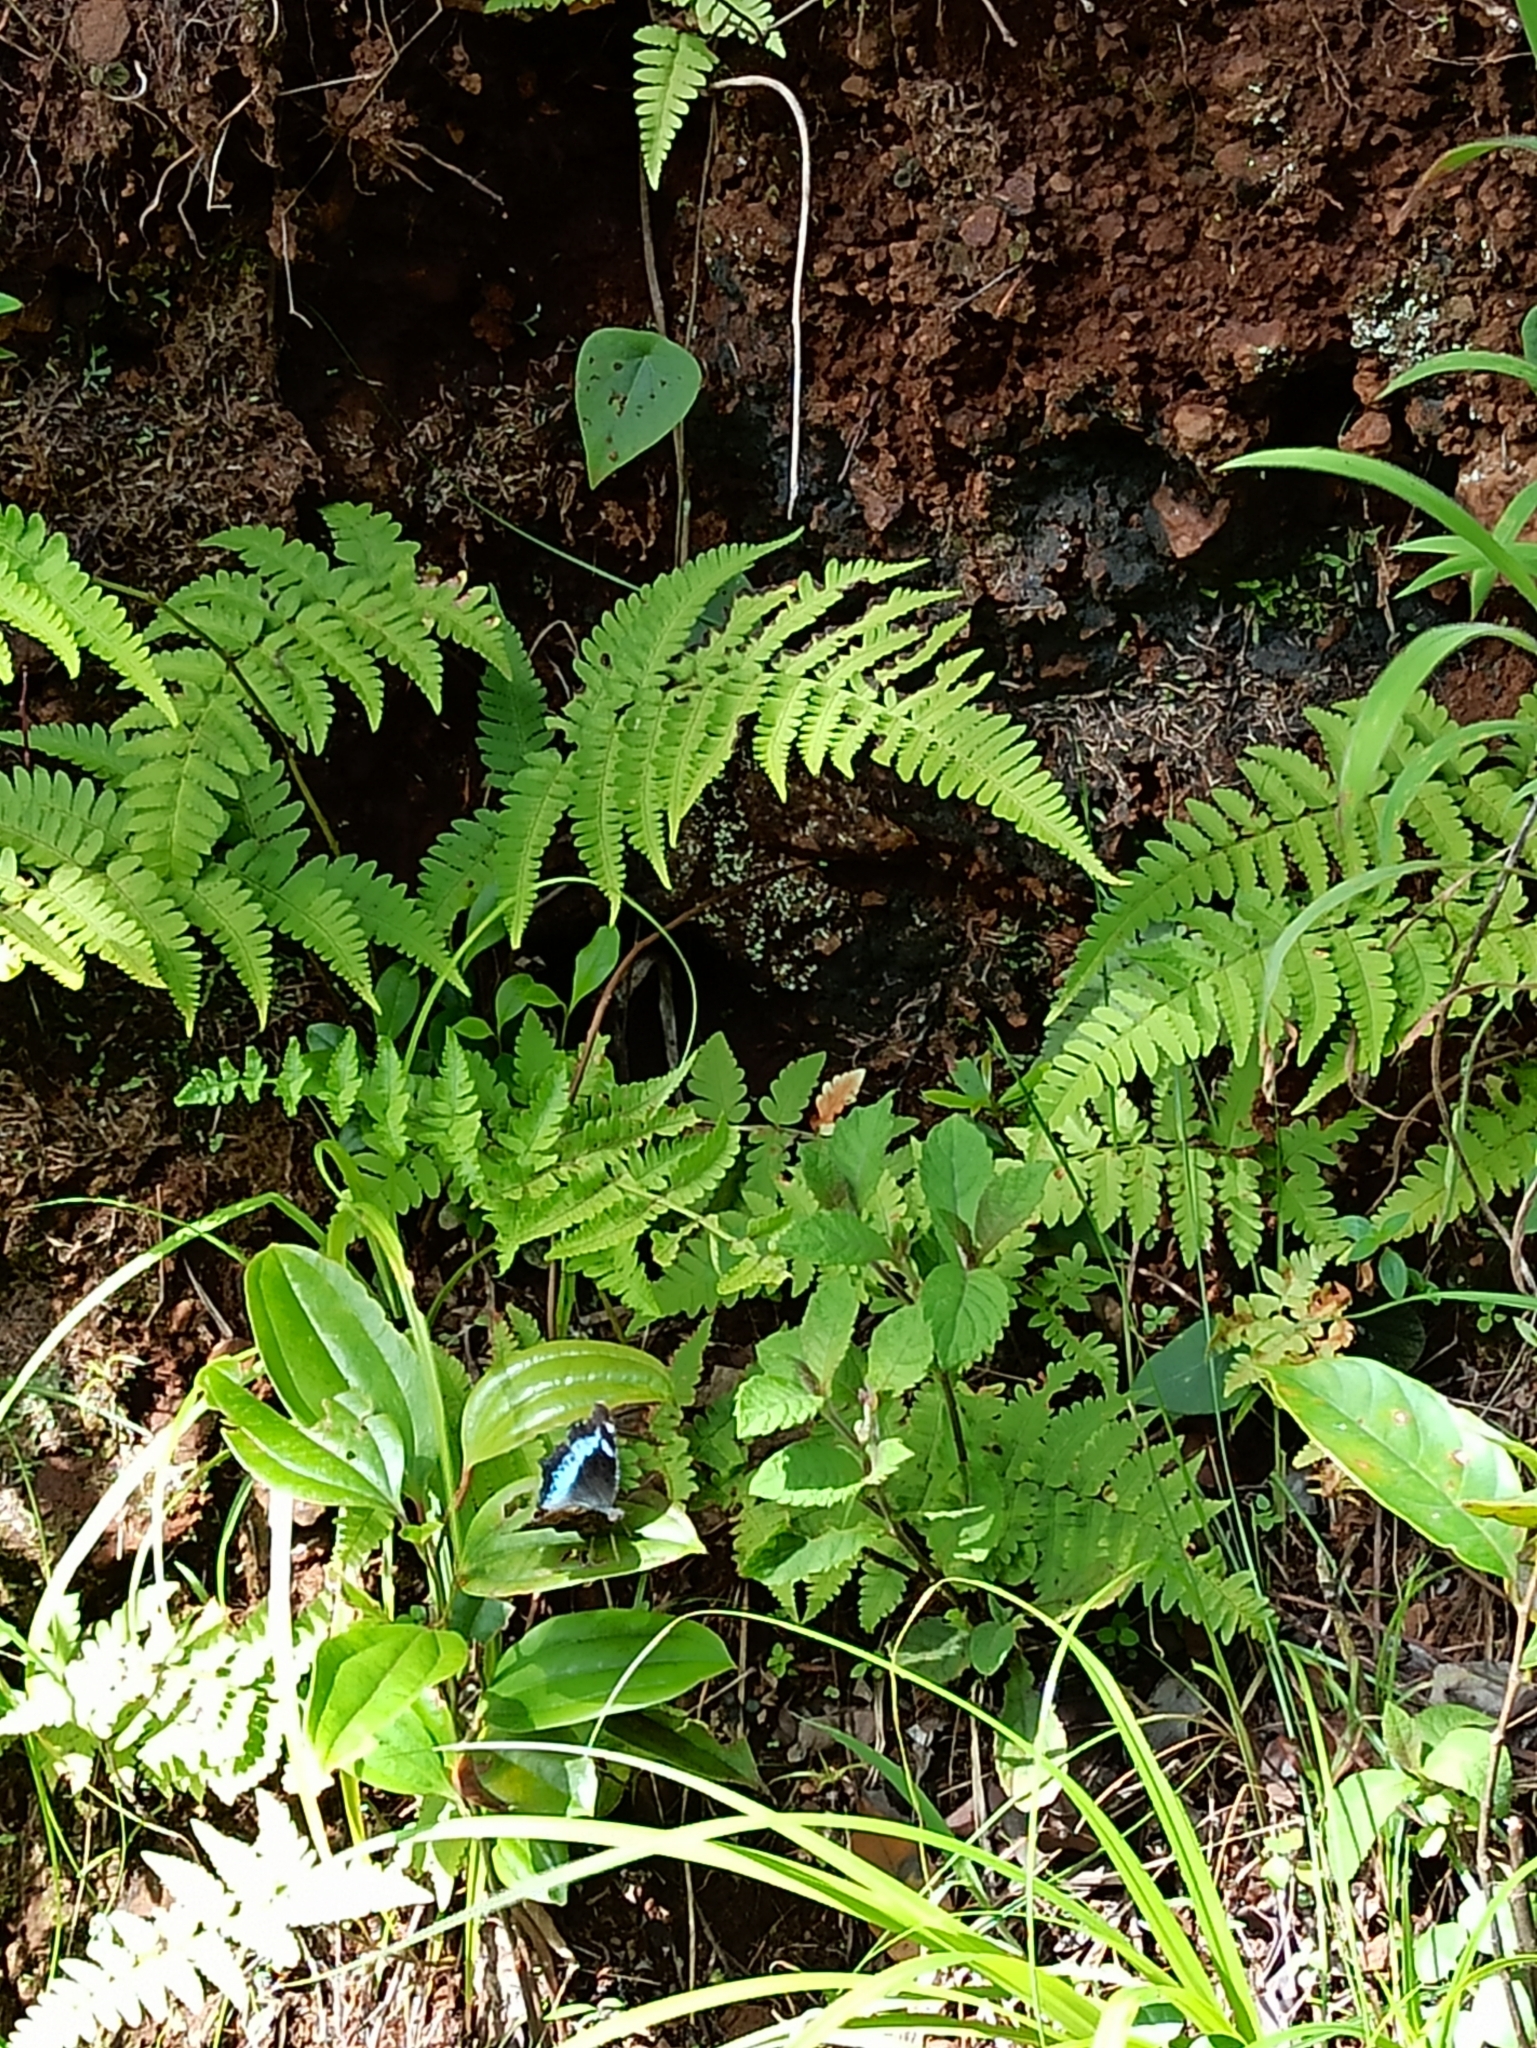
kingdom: Animalia
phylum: Arthropoda
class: Insecta
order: Lepidoptera
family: Nymphalidae
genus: Vanessa
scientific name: Vanessa Kaniska canace
